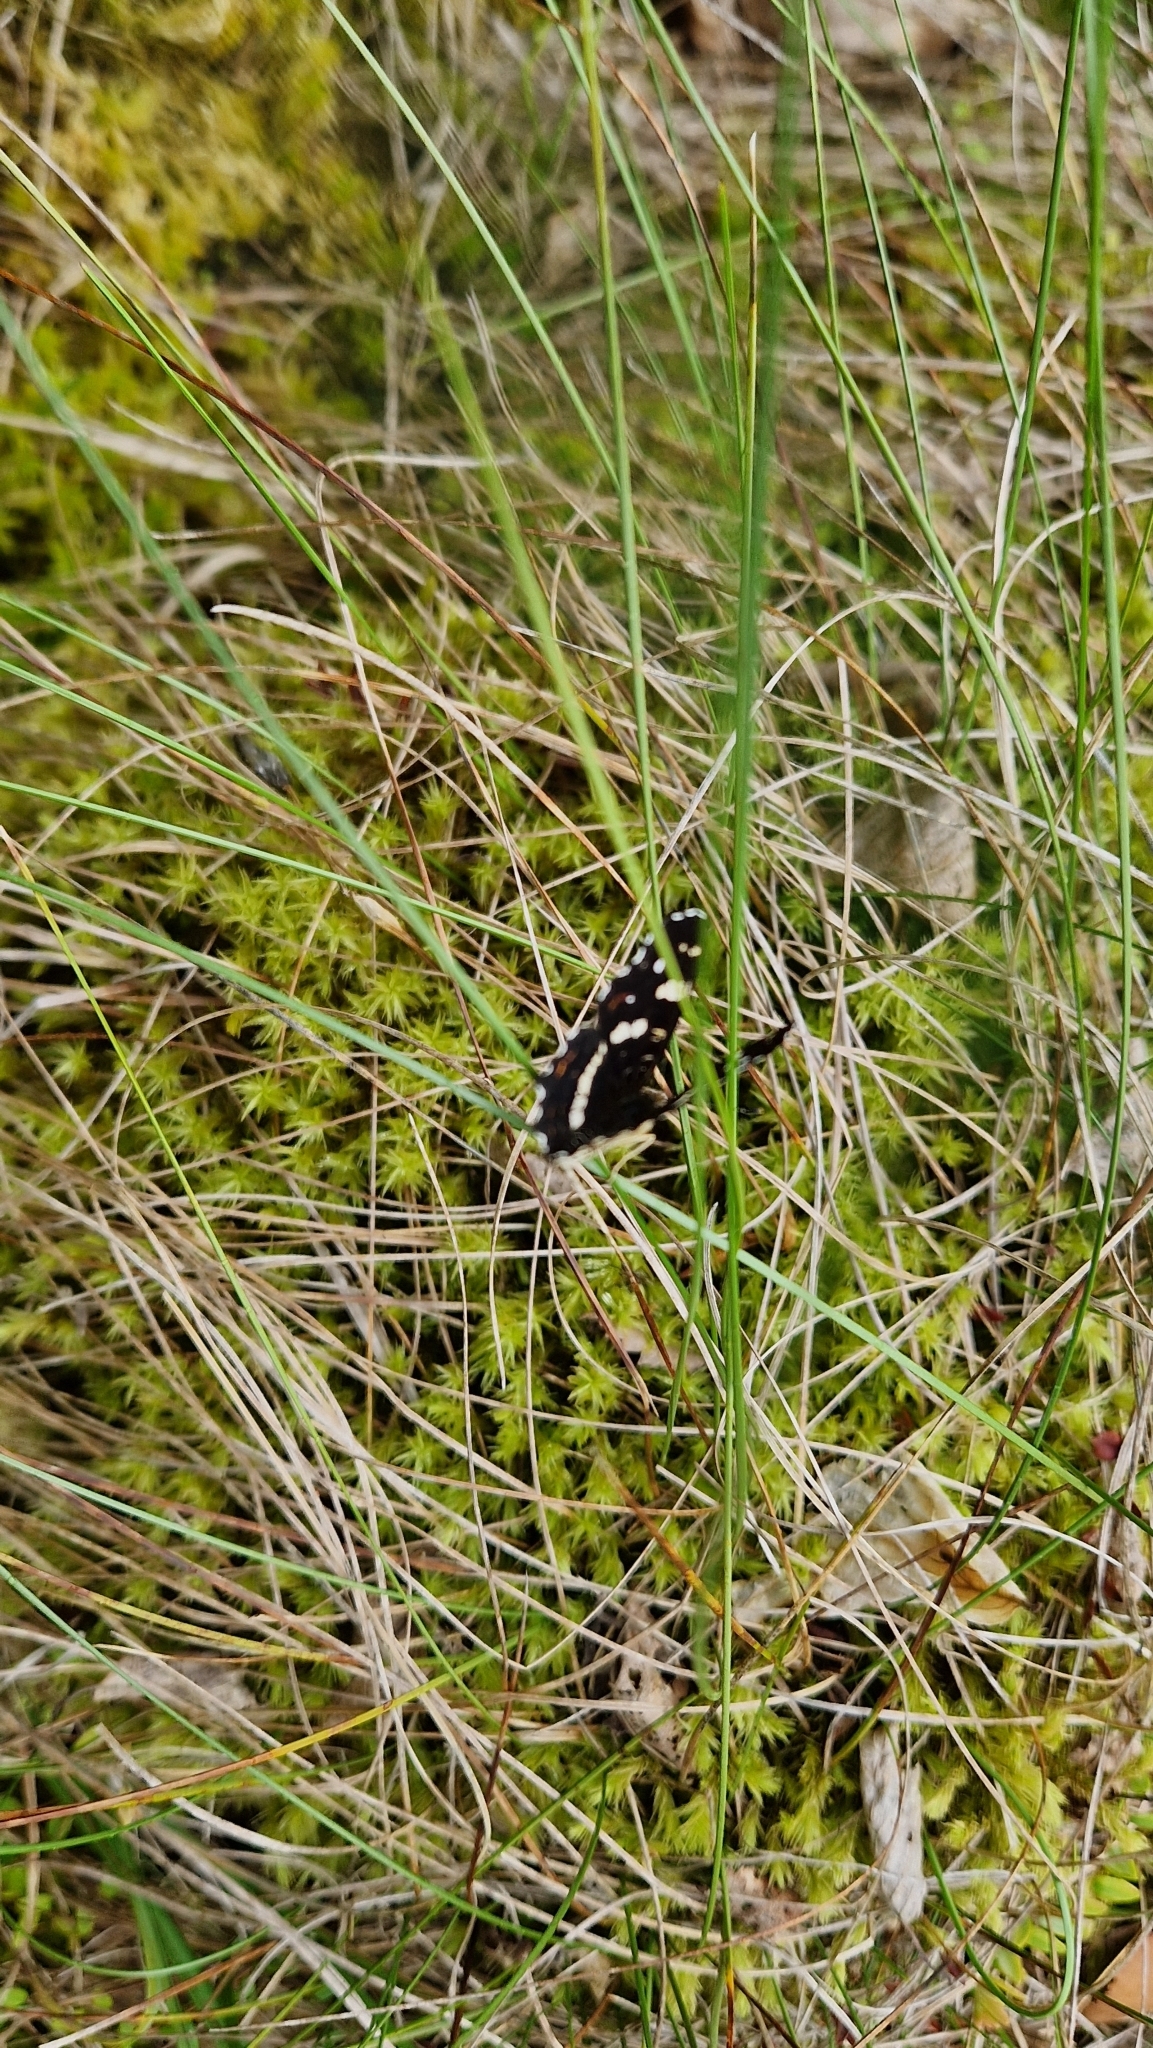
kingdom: Animalia
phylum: Arthropoda
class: Insecta
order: Lepidoptera
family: Nymphalidae
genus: Araschnia
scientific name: Araschnia levana
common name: Map butterfly
